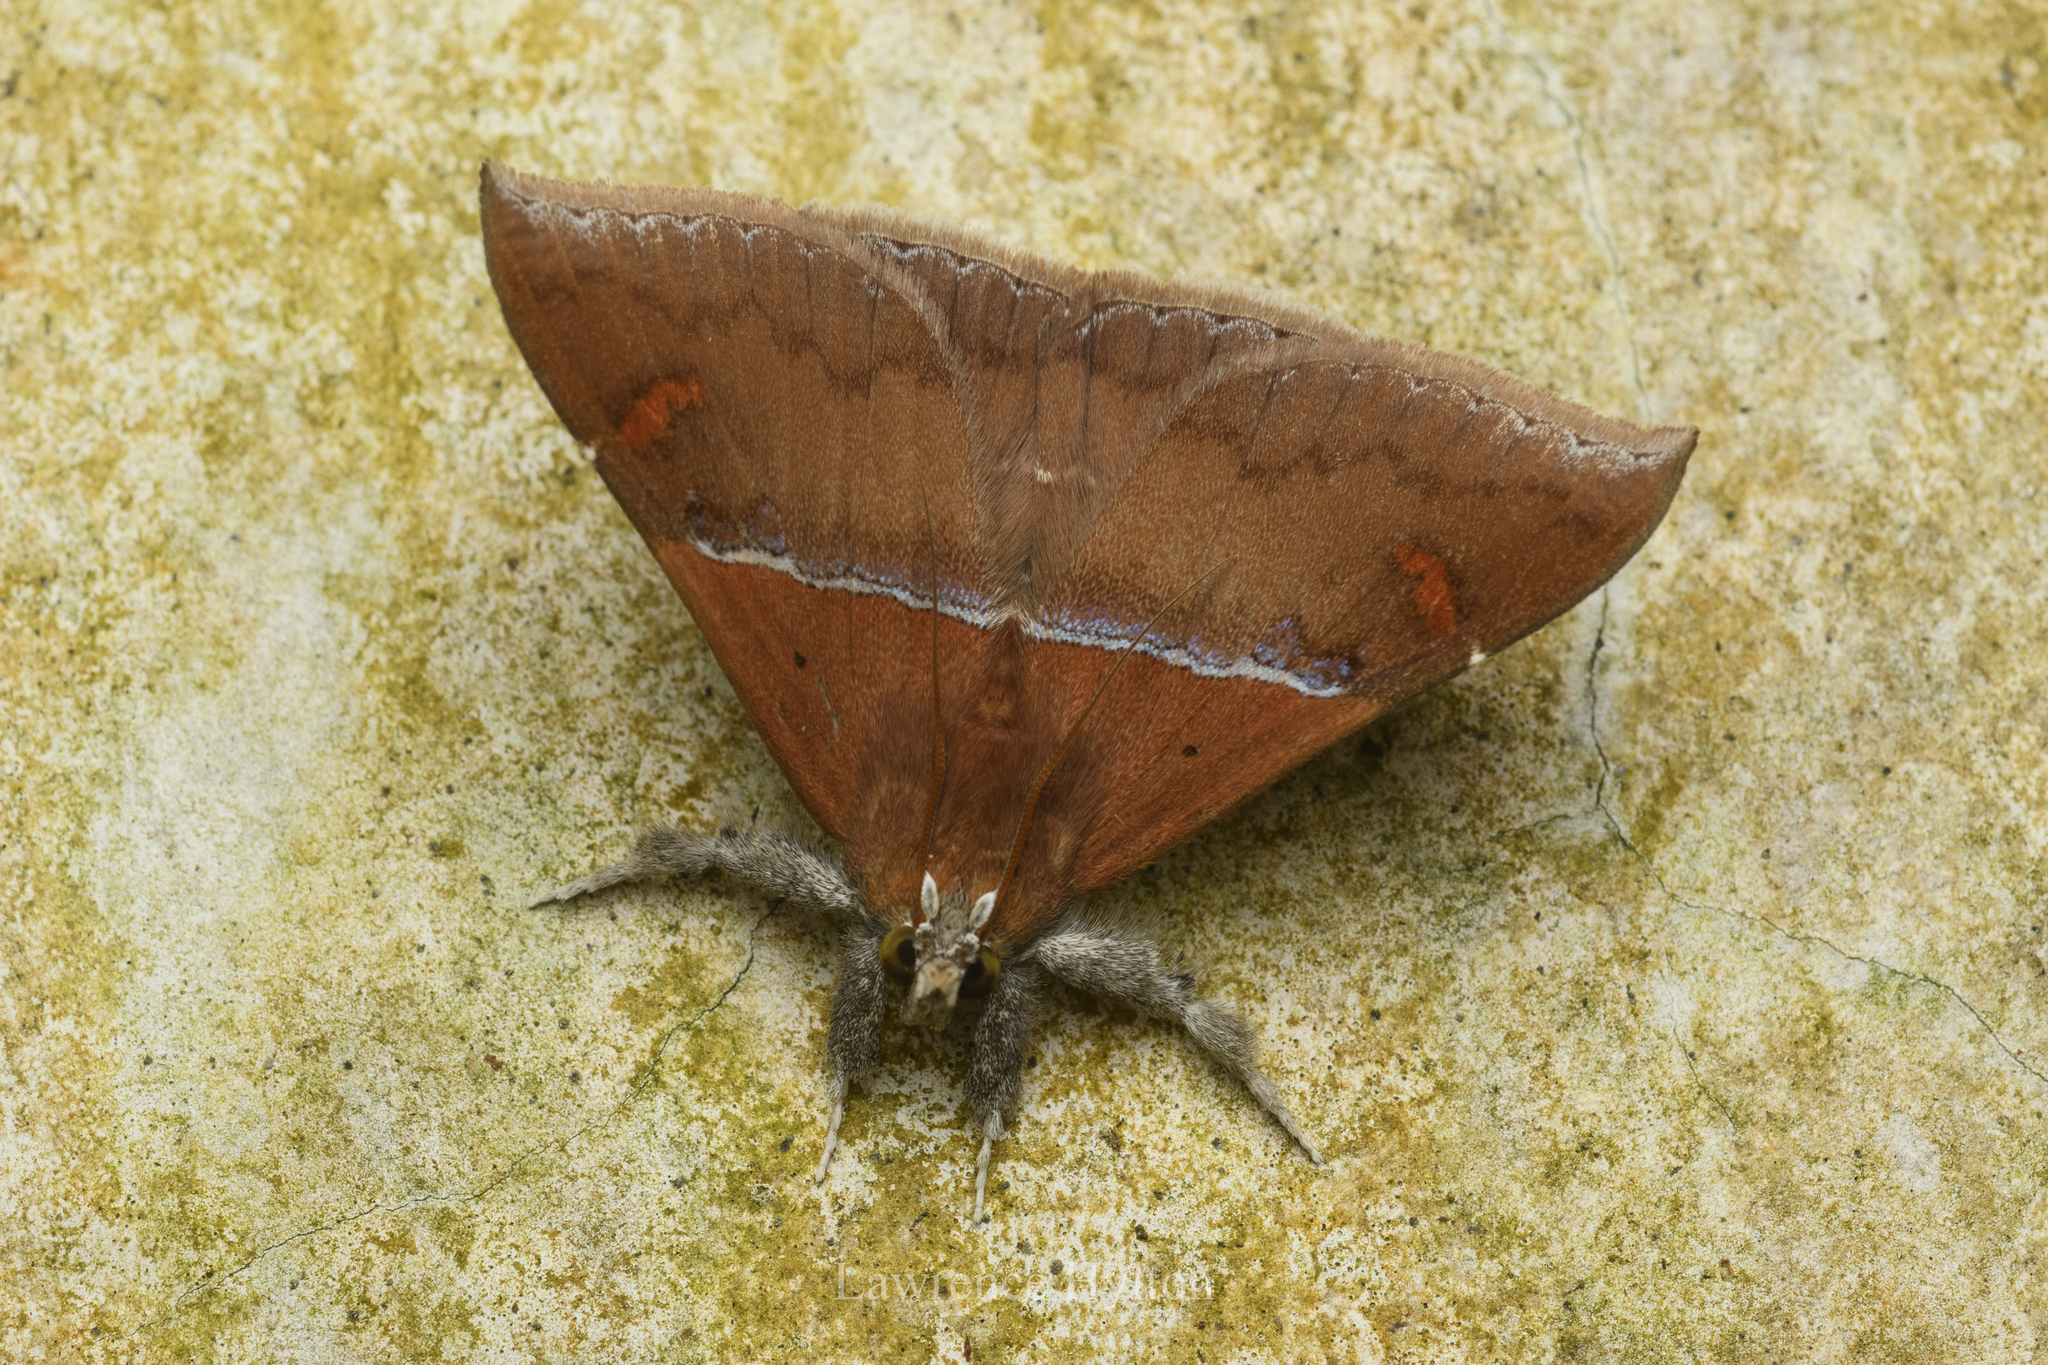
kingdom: Animalia
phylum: Arthropoda
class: Insecta
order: Lepidoptera
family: Erebidae
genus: Sympis
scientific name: Sympis rufibasis
